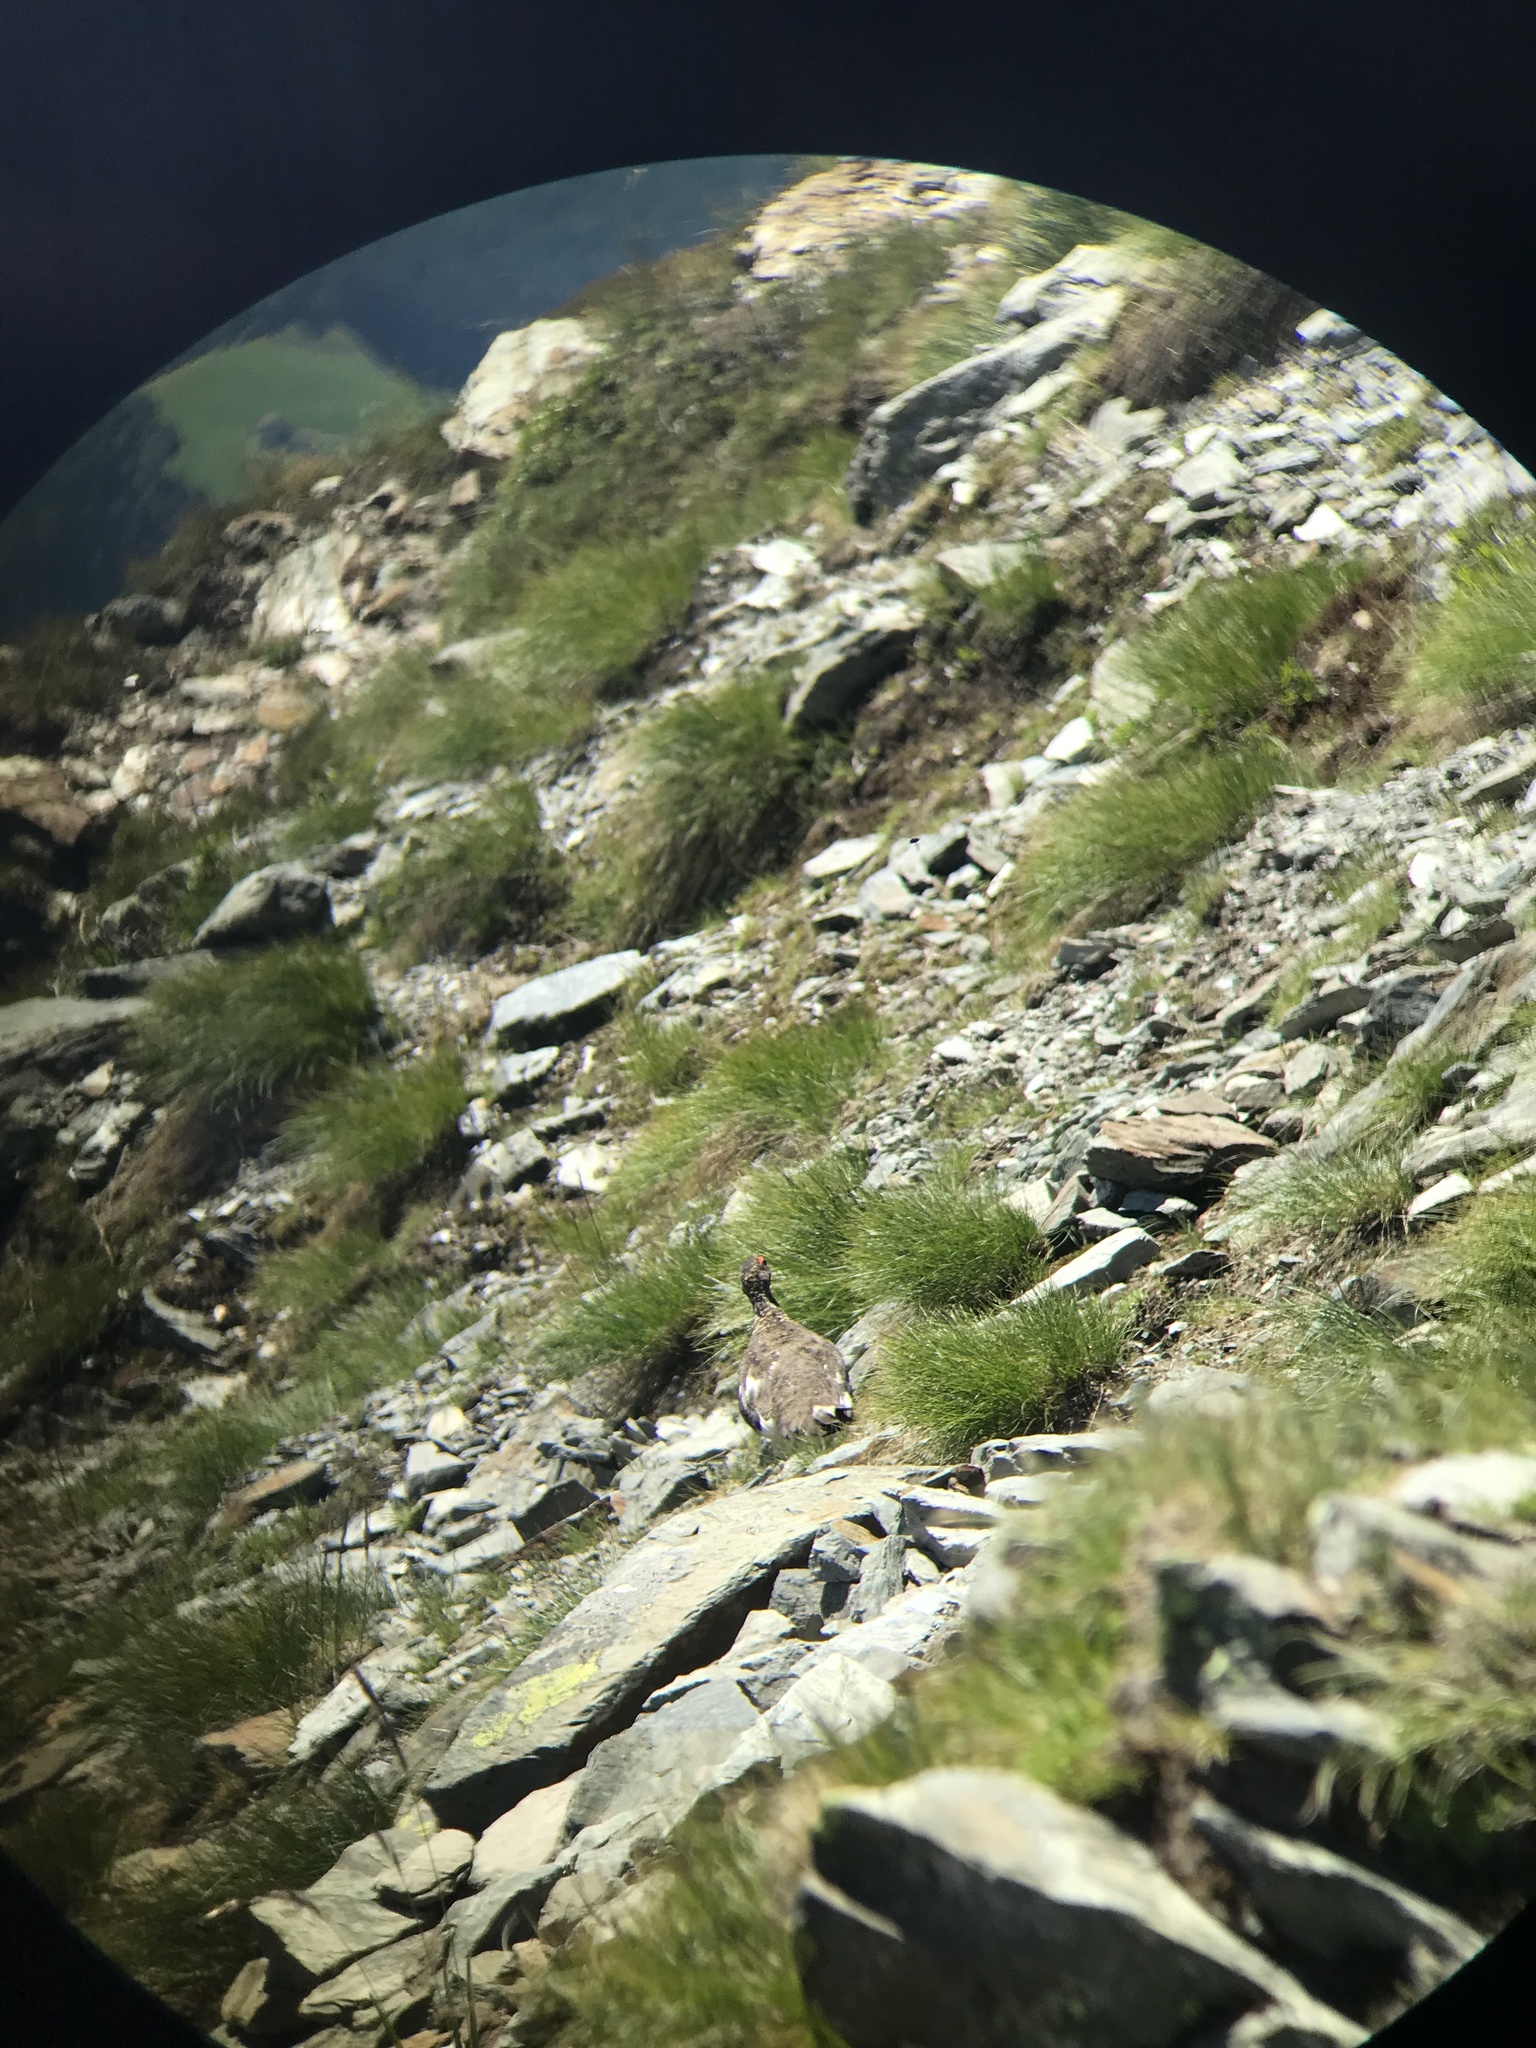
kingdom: Animalia
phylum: Chordata
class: Aves
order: Galliformes
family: Phasianidae
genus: Lagopus
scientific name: Lagopus muta
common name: Rock ptarmigan
